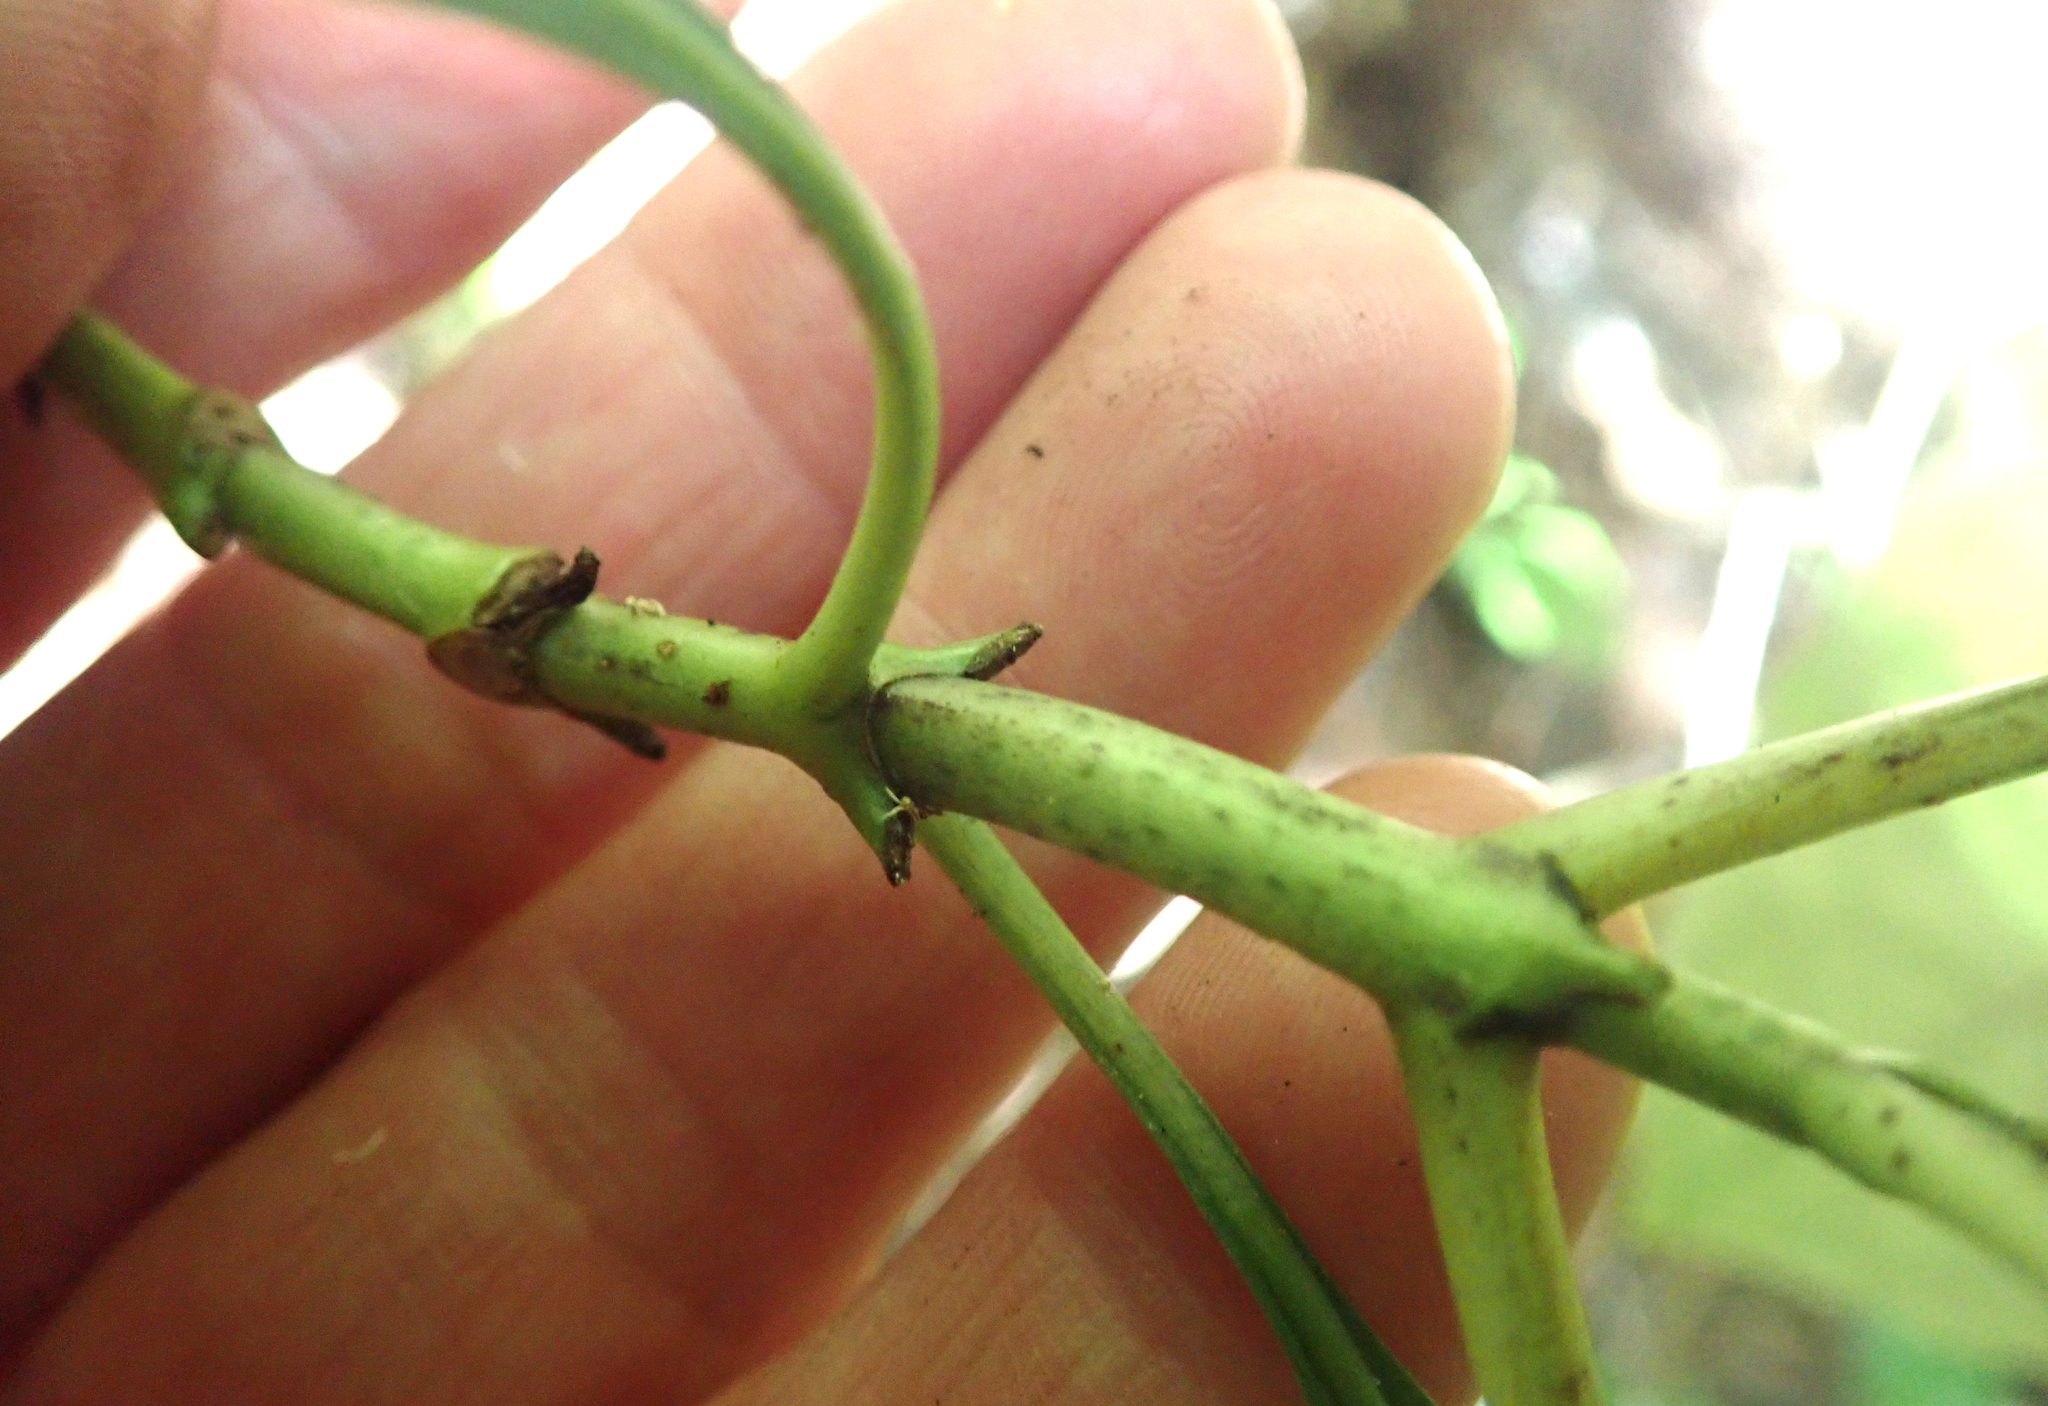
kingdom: Plantae
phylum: Tracheophyta
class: Magnoliopsida
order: Gentianales
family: Rubiaceae
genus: Coprosma
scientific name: Coprosma autumnalis
